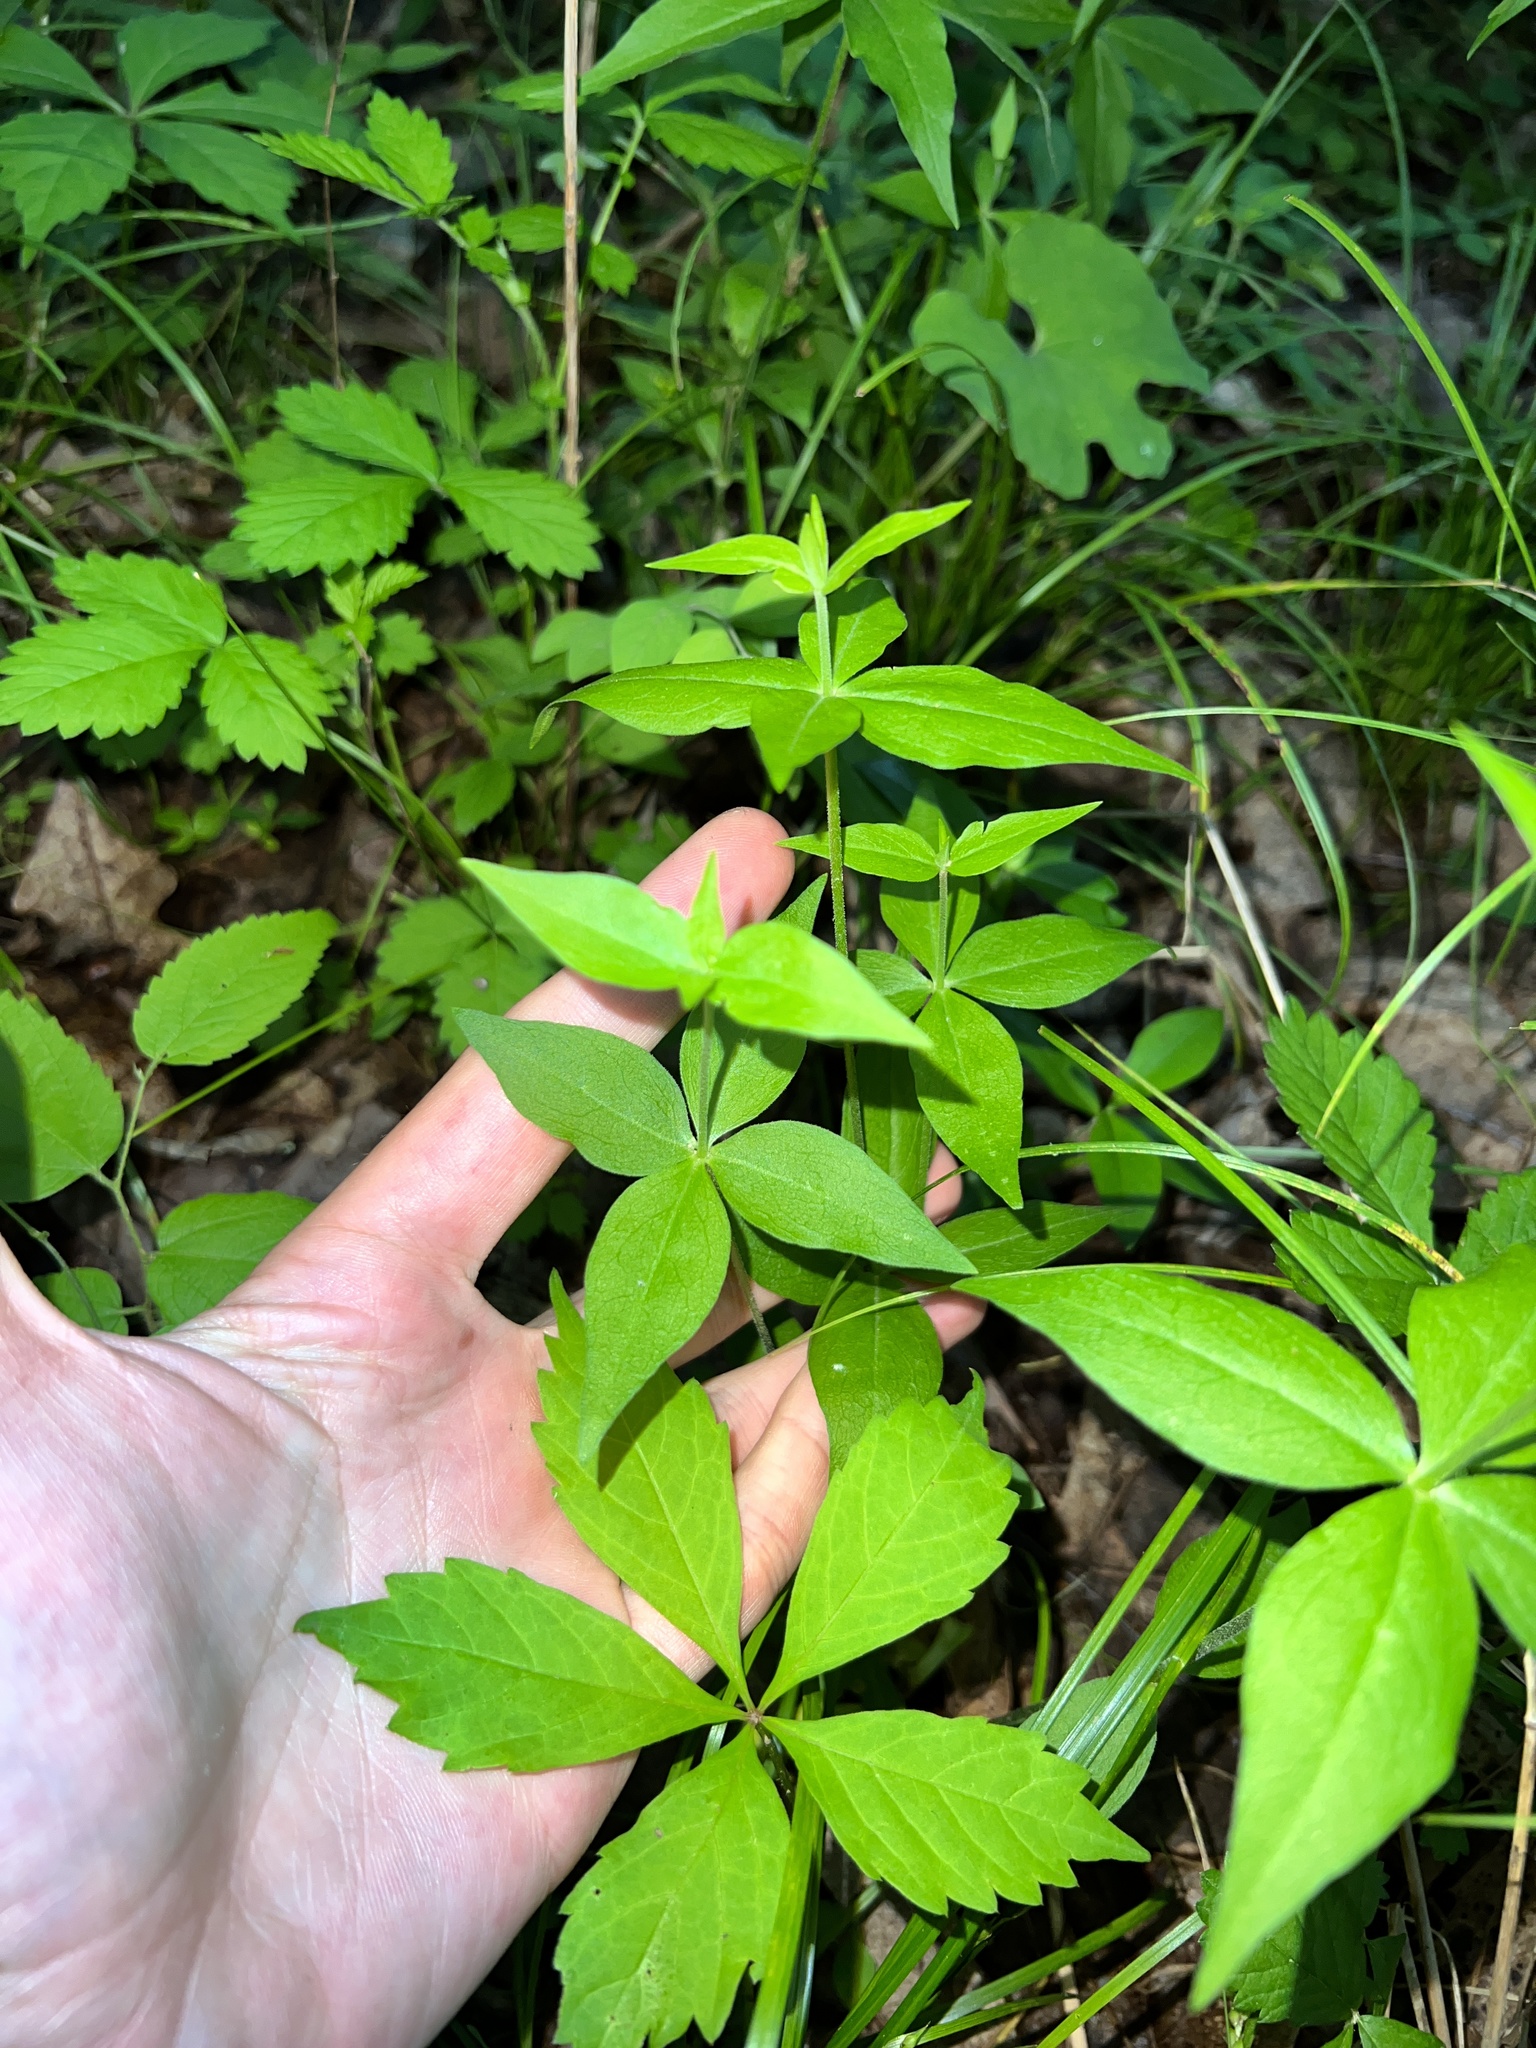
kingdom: Plantae
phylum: Tracheophyta
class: Magnoliopsida
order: Caryophyllales
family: Caryophyllaceae
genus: Silene
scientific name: Silene stellata
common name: Starry campion
